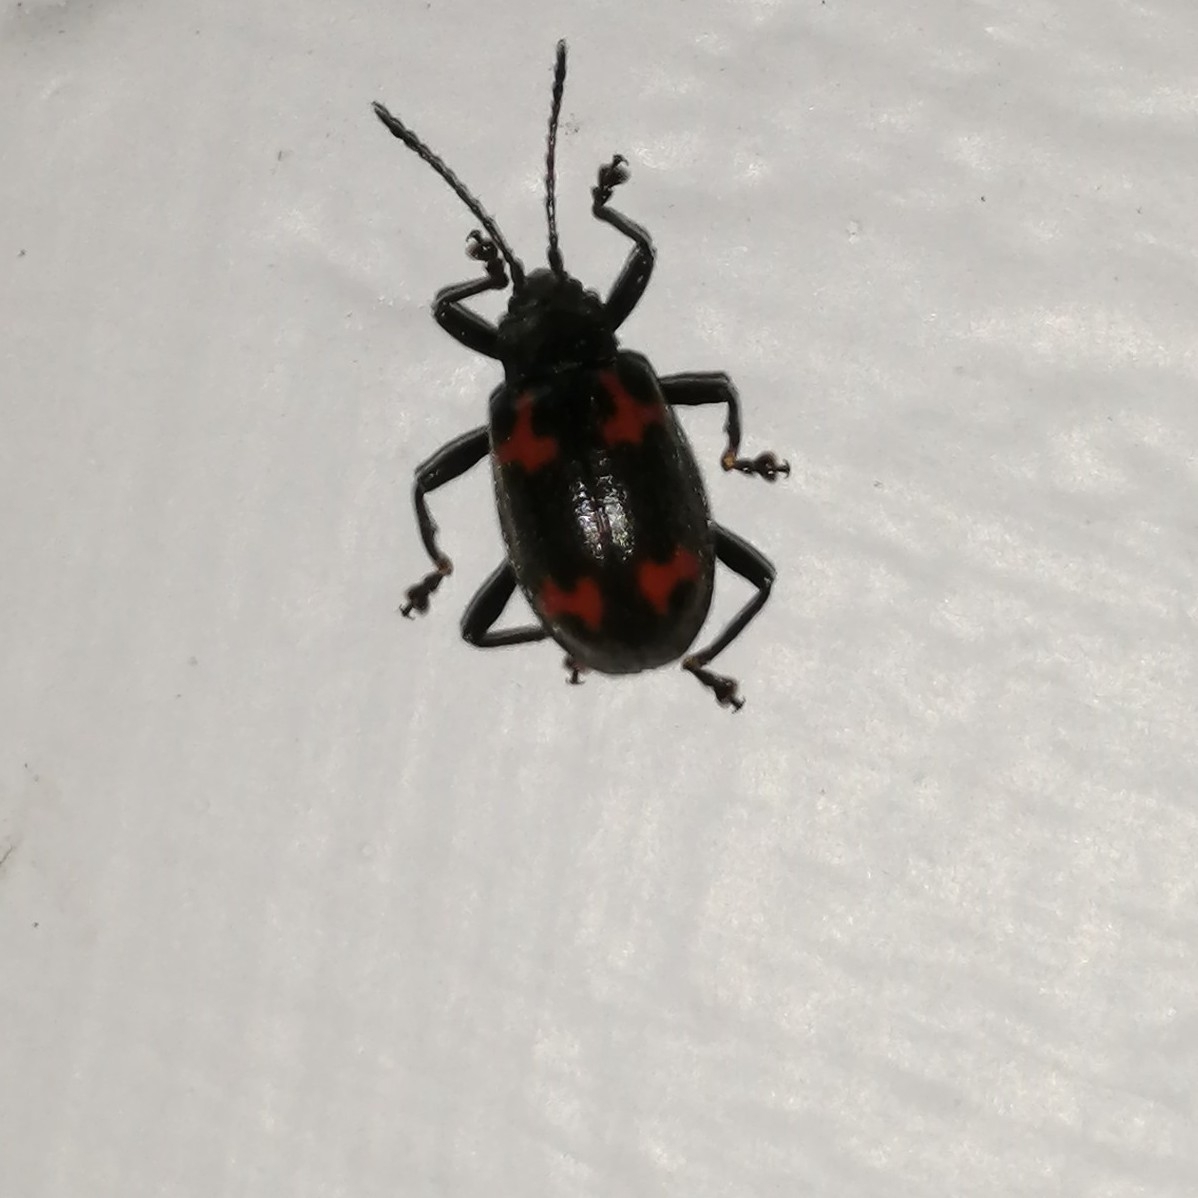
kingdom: Animalia
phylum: Arthropoda
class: Insecta
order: Coleoptera
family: Endomychidae
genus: Parindalmus
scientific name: Parindalmus
